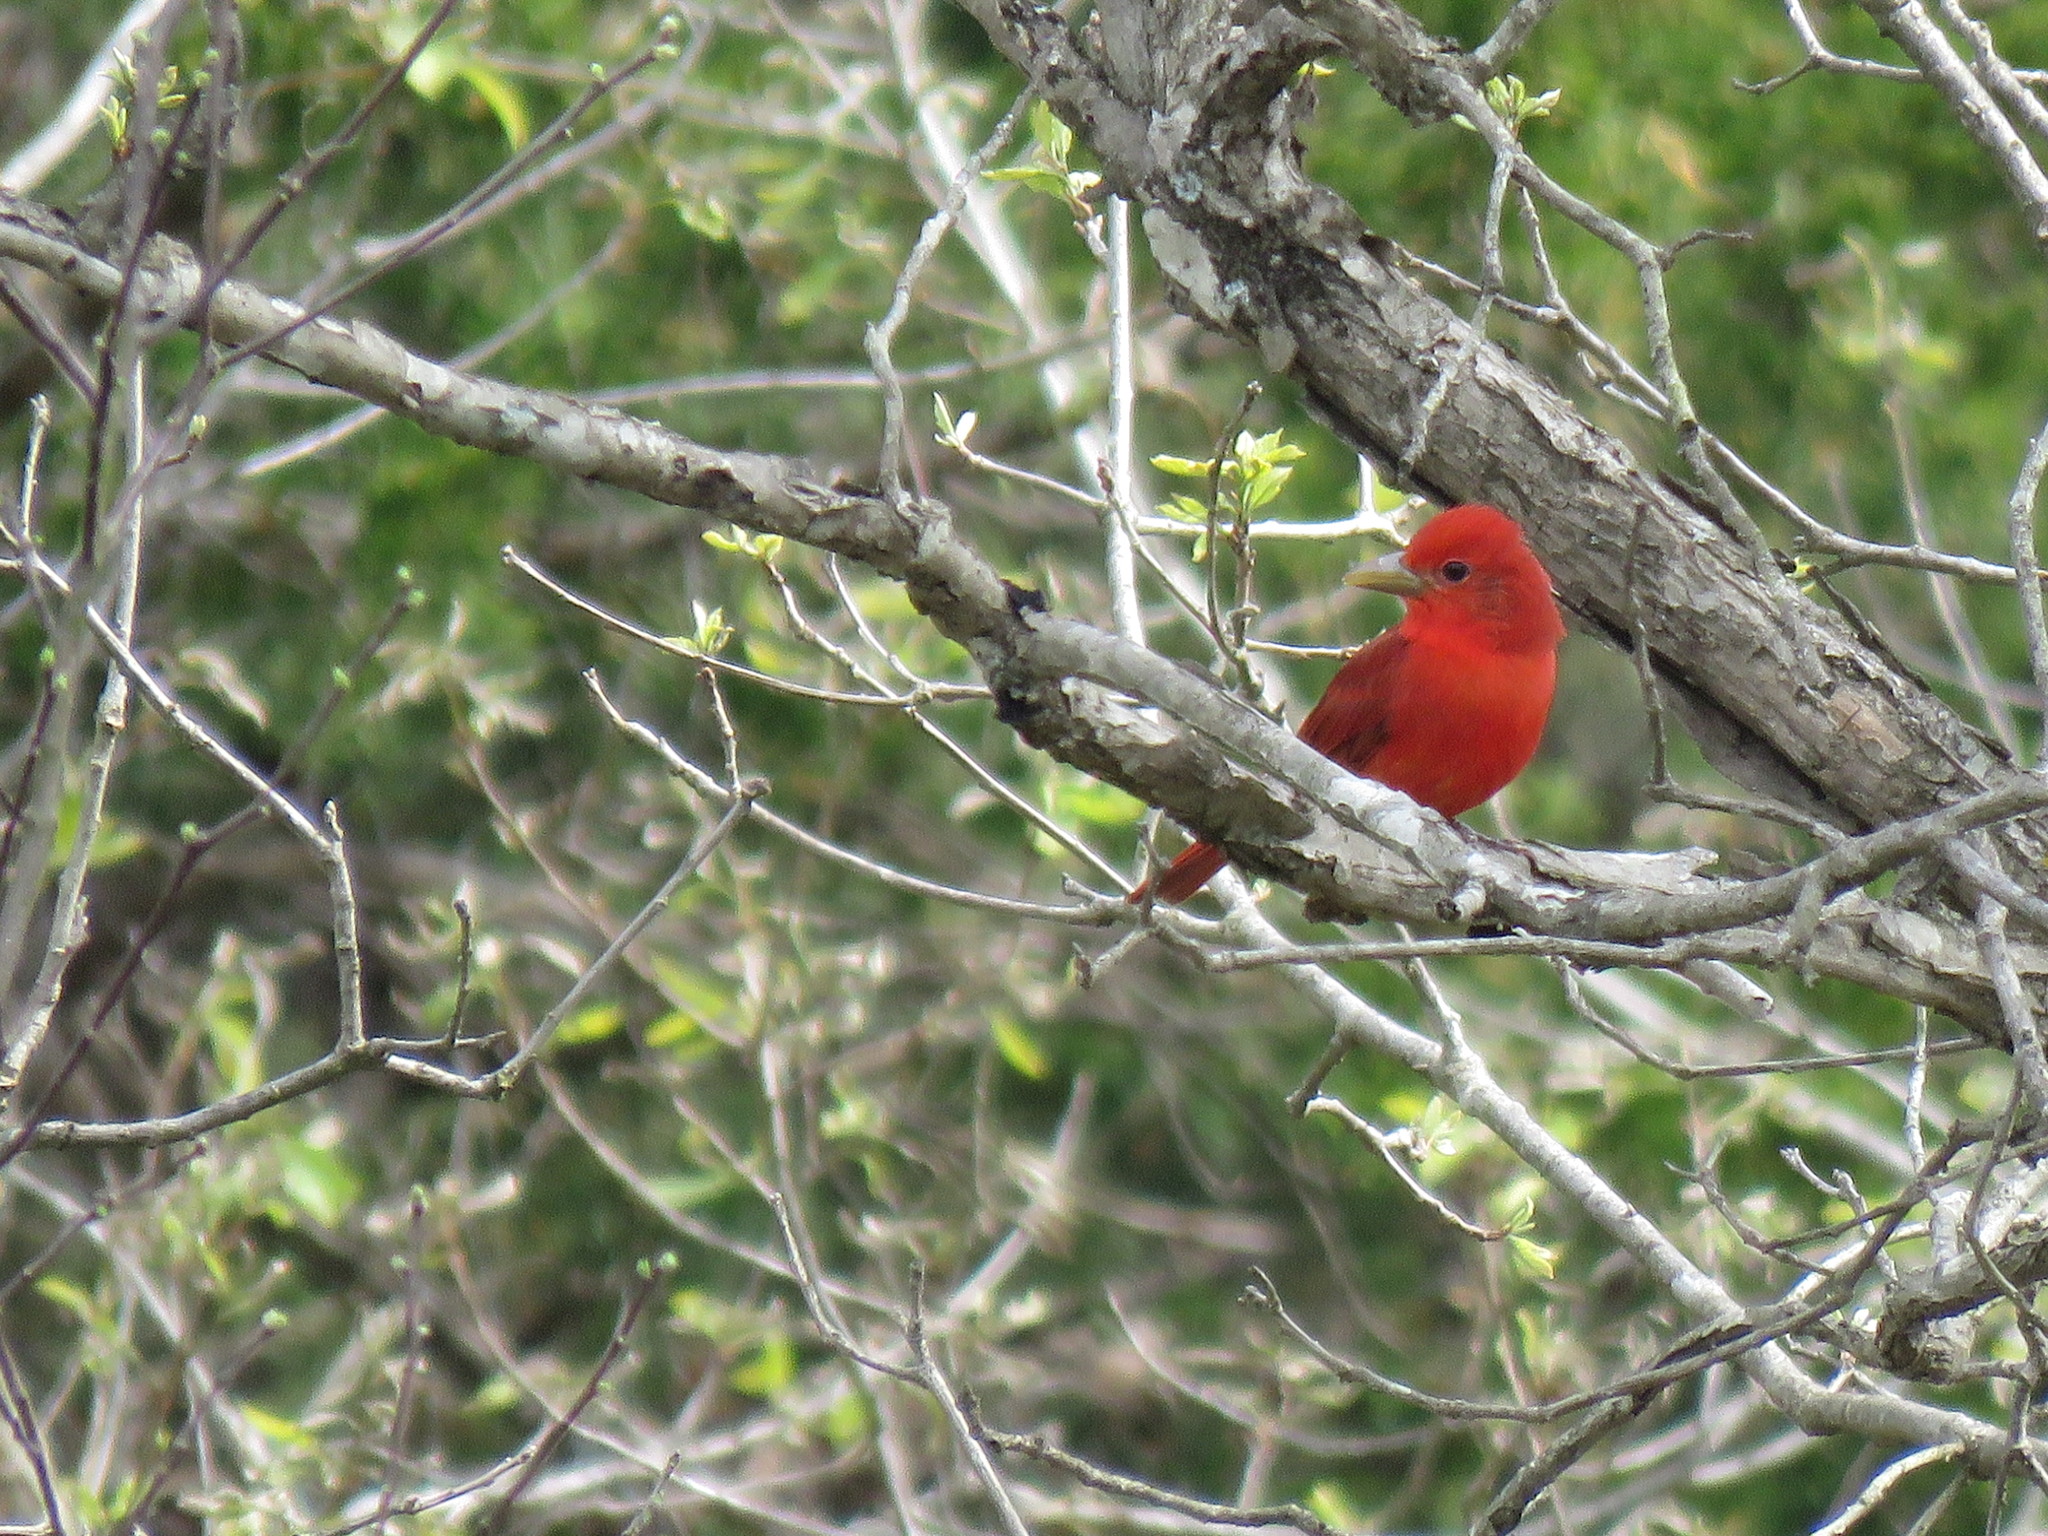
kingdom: Animalia
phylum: Chordata
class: Aves
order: Passeriformes
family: Cardinalidae
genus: Piranga
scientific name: Piranga rubra
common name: Summer tanager
